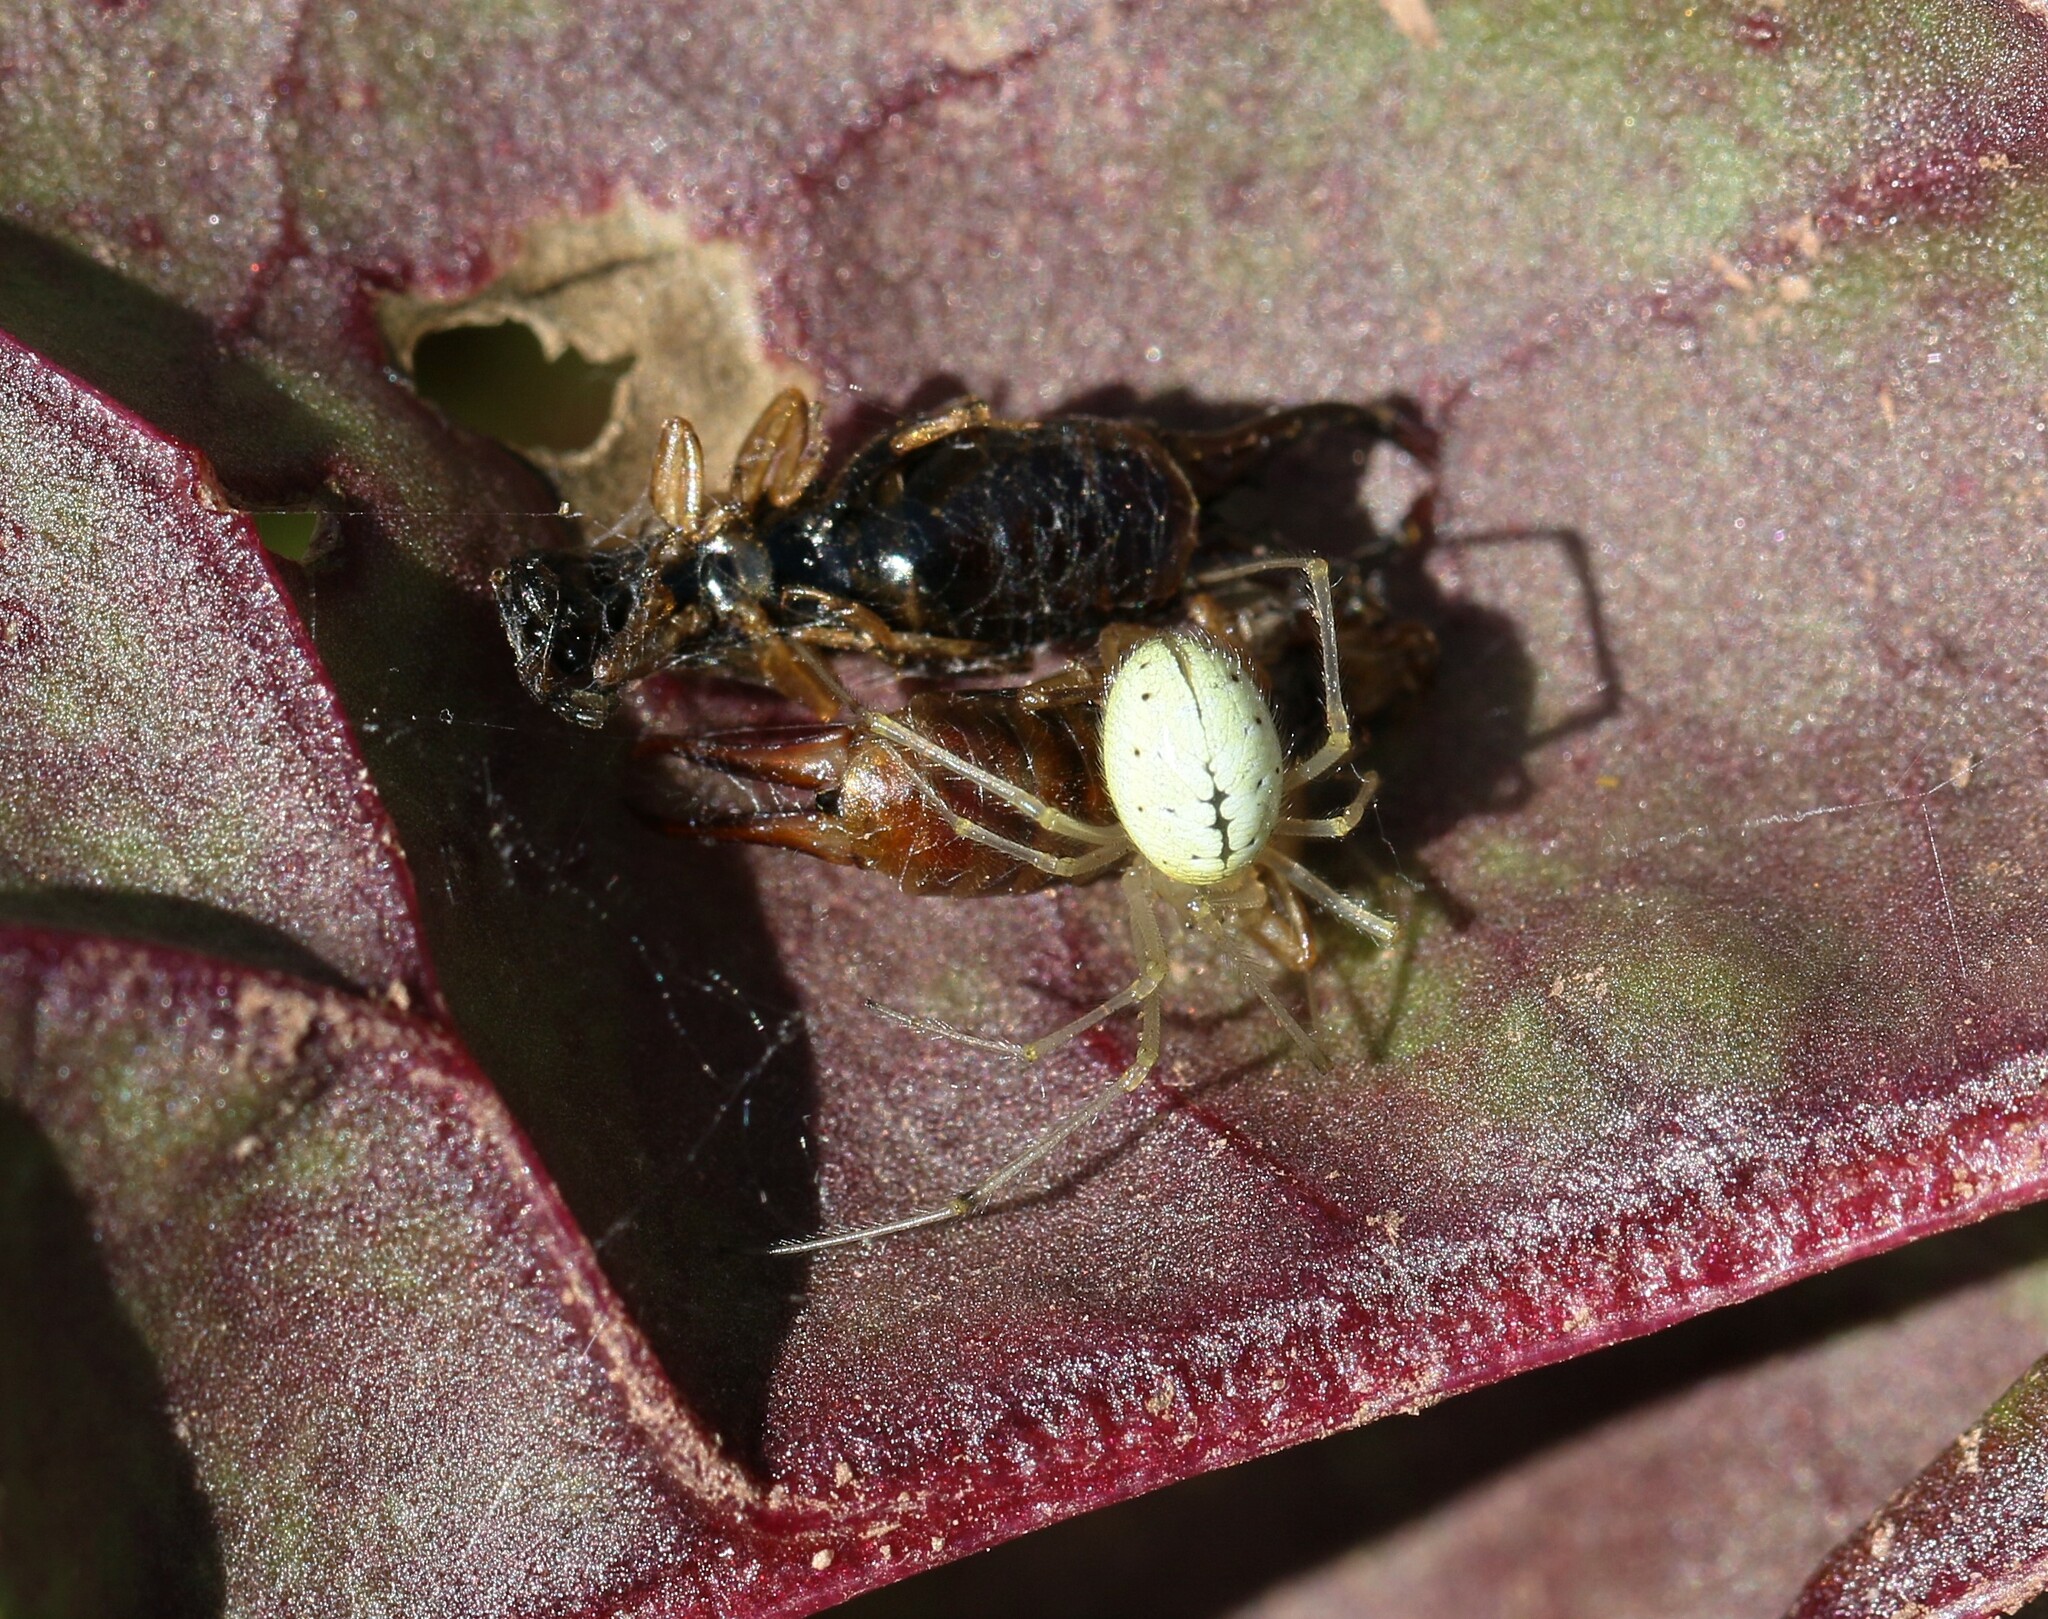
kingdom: Animalia
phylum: Arthropoda
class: Arachnida
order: Araneae
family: Theridiidae
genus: Enoplognatha
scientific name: Enoplognatha ovata
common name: Common candy-striped spider
